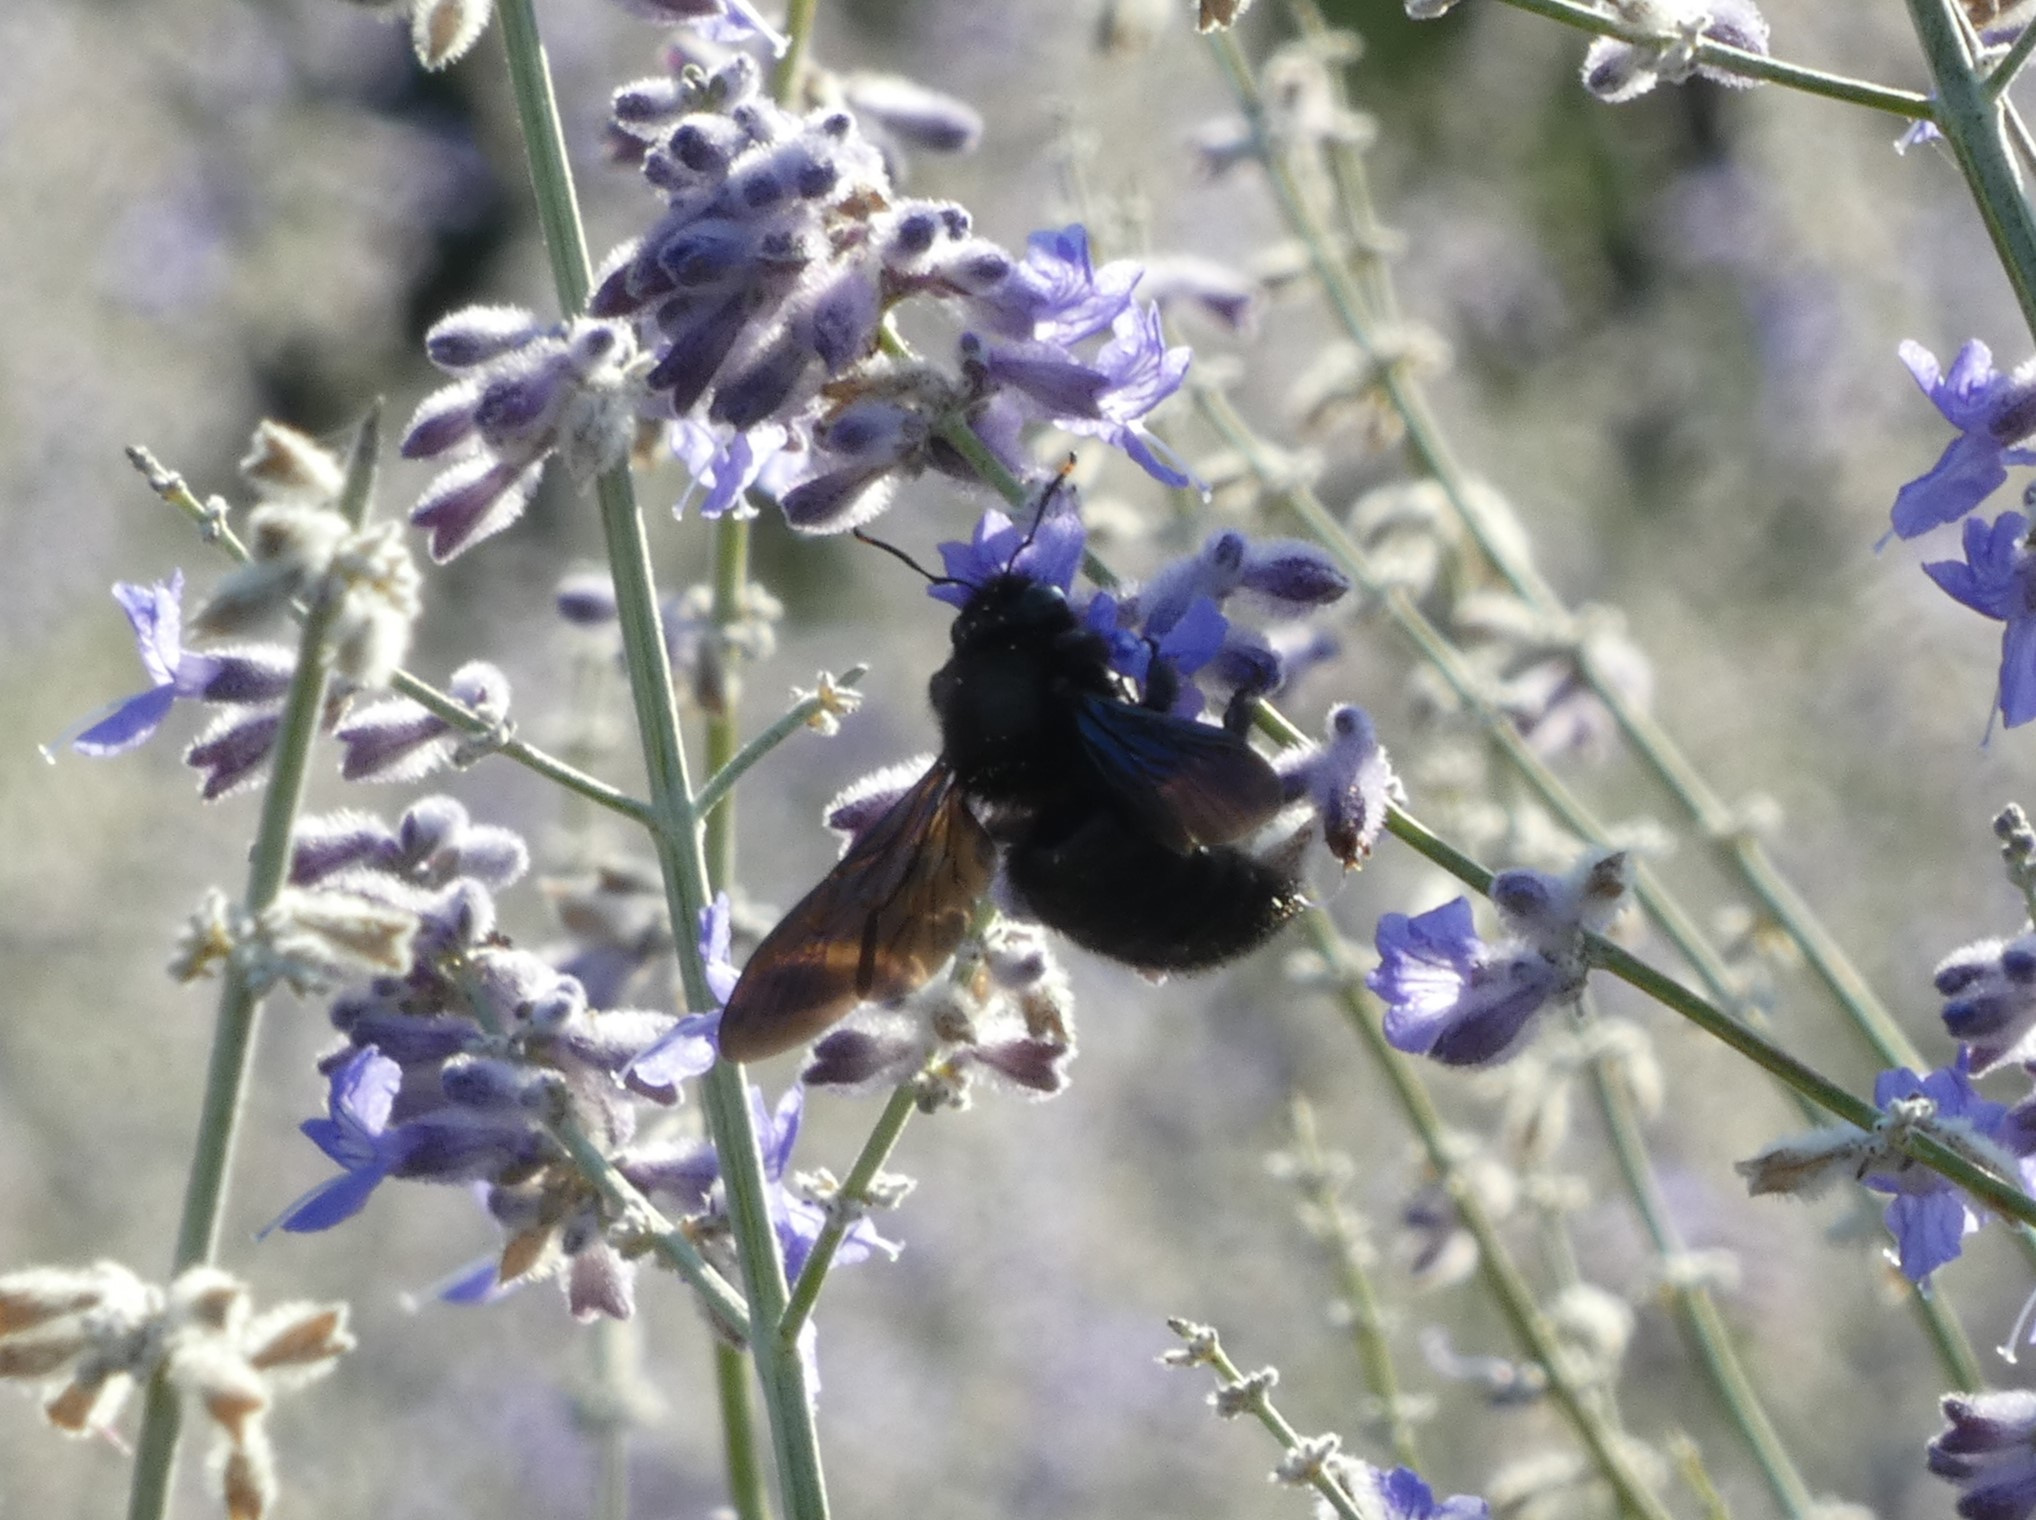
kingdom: Animalia
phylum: Arthropoda
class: Insecta
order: Hymenoptera
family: Apidae
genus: Xylocopa
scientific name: Xylocopa violacea
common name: Violet carpenter bee
